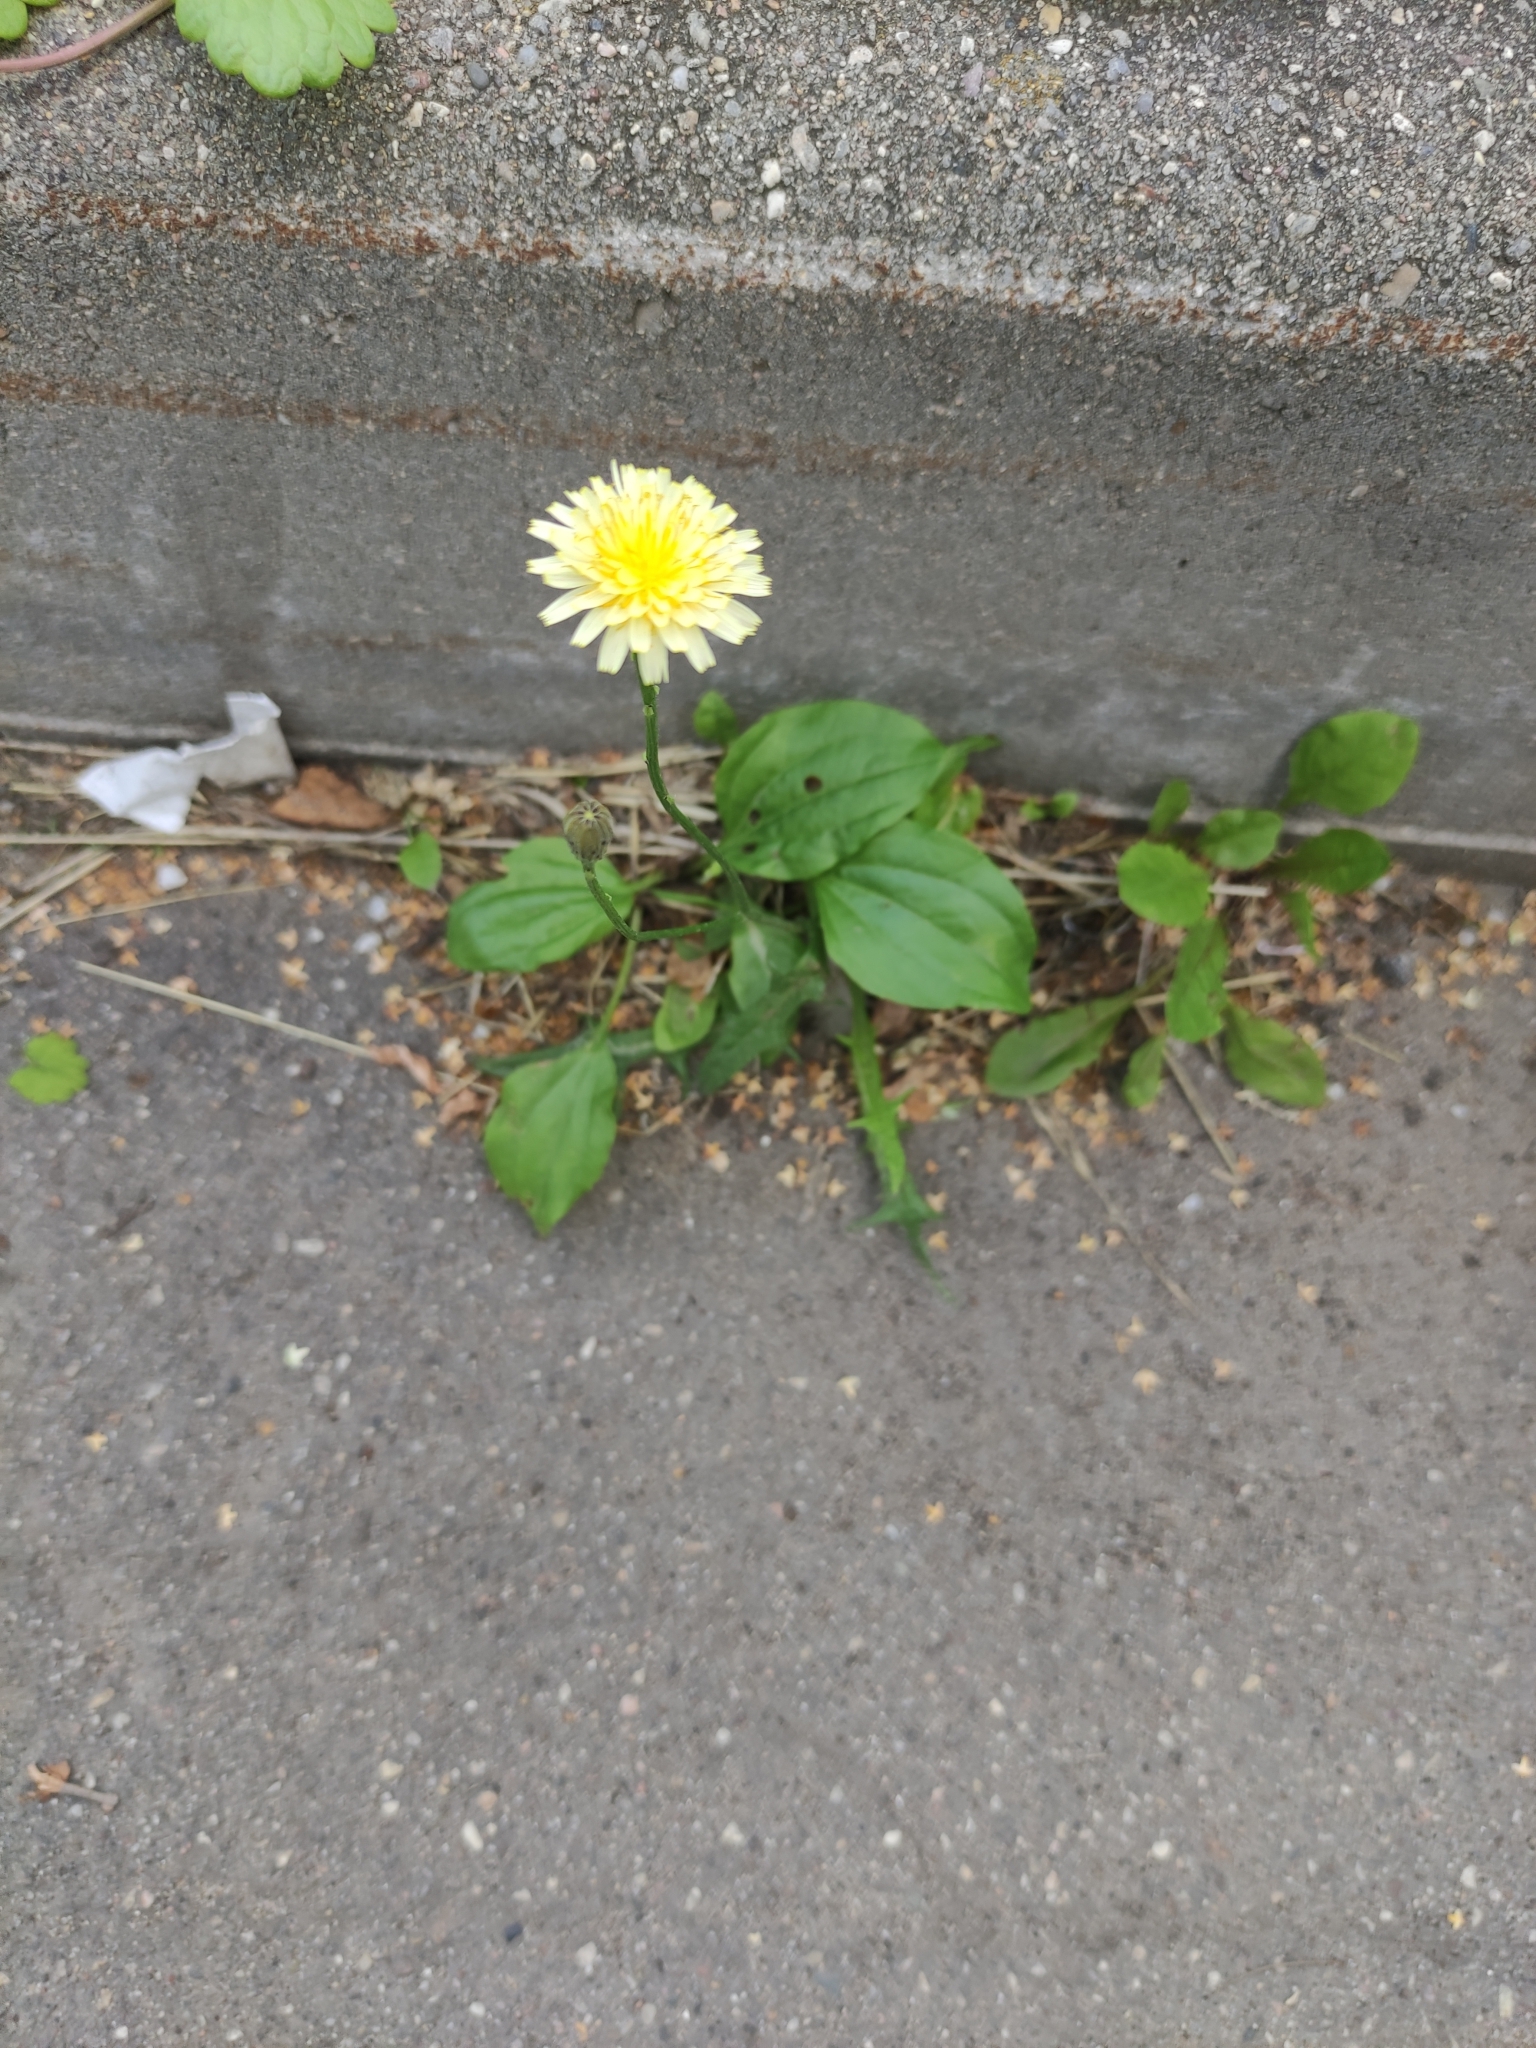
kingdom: Plantae
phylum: Tracheophyta
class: Magnoliopsida
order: Asterales
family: Asteraceae
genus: Scorzoneroides
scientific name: Scorzoneroides autumnalis
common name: Autumn hawkbit
